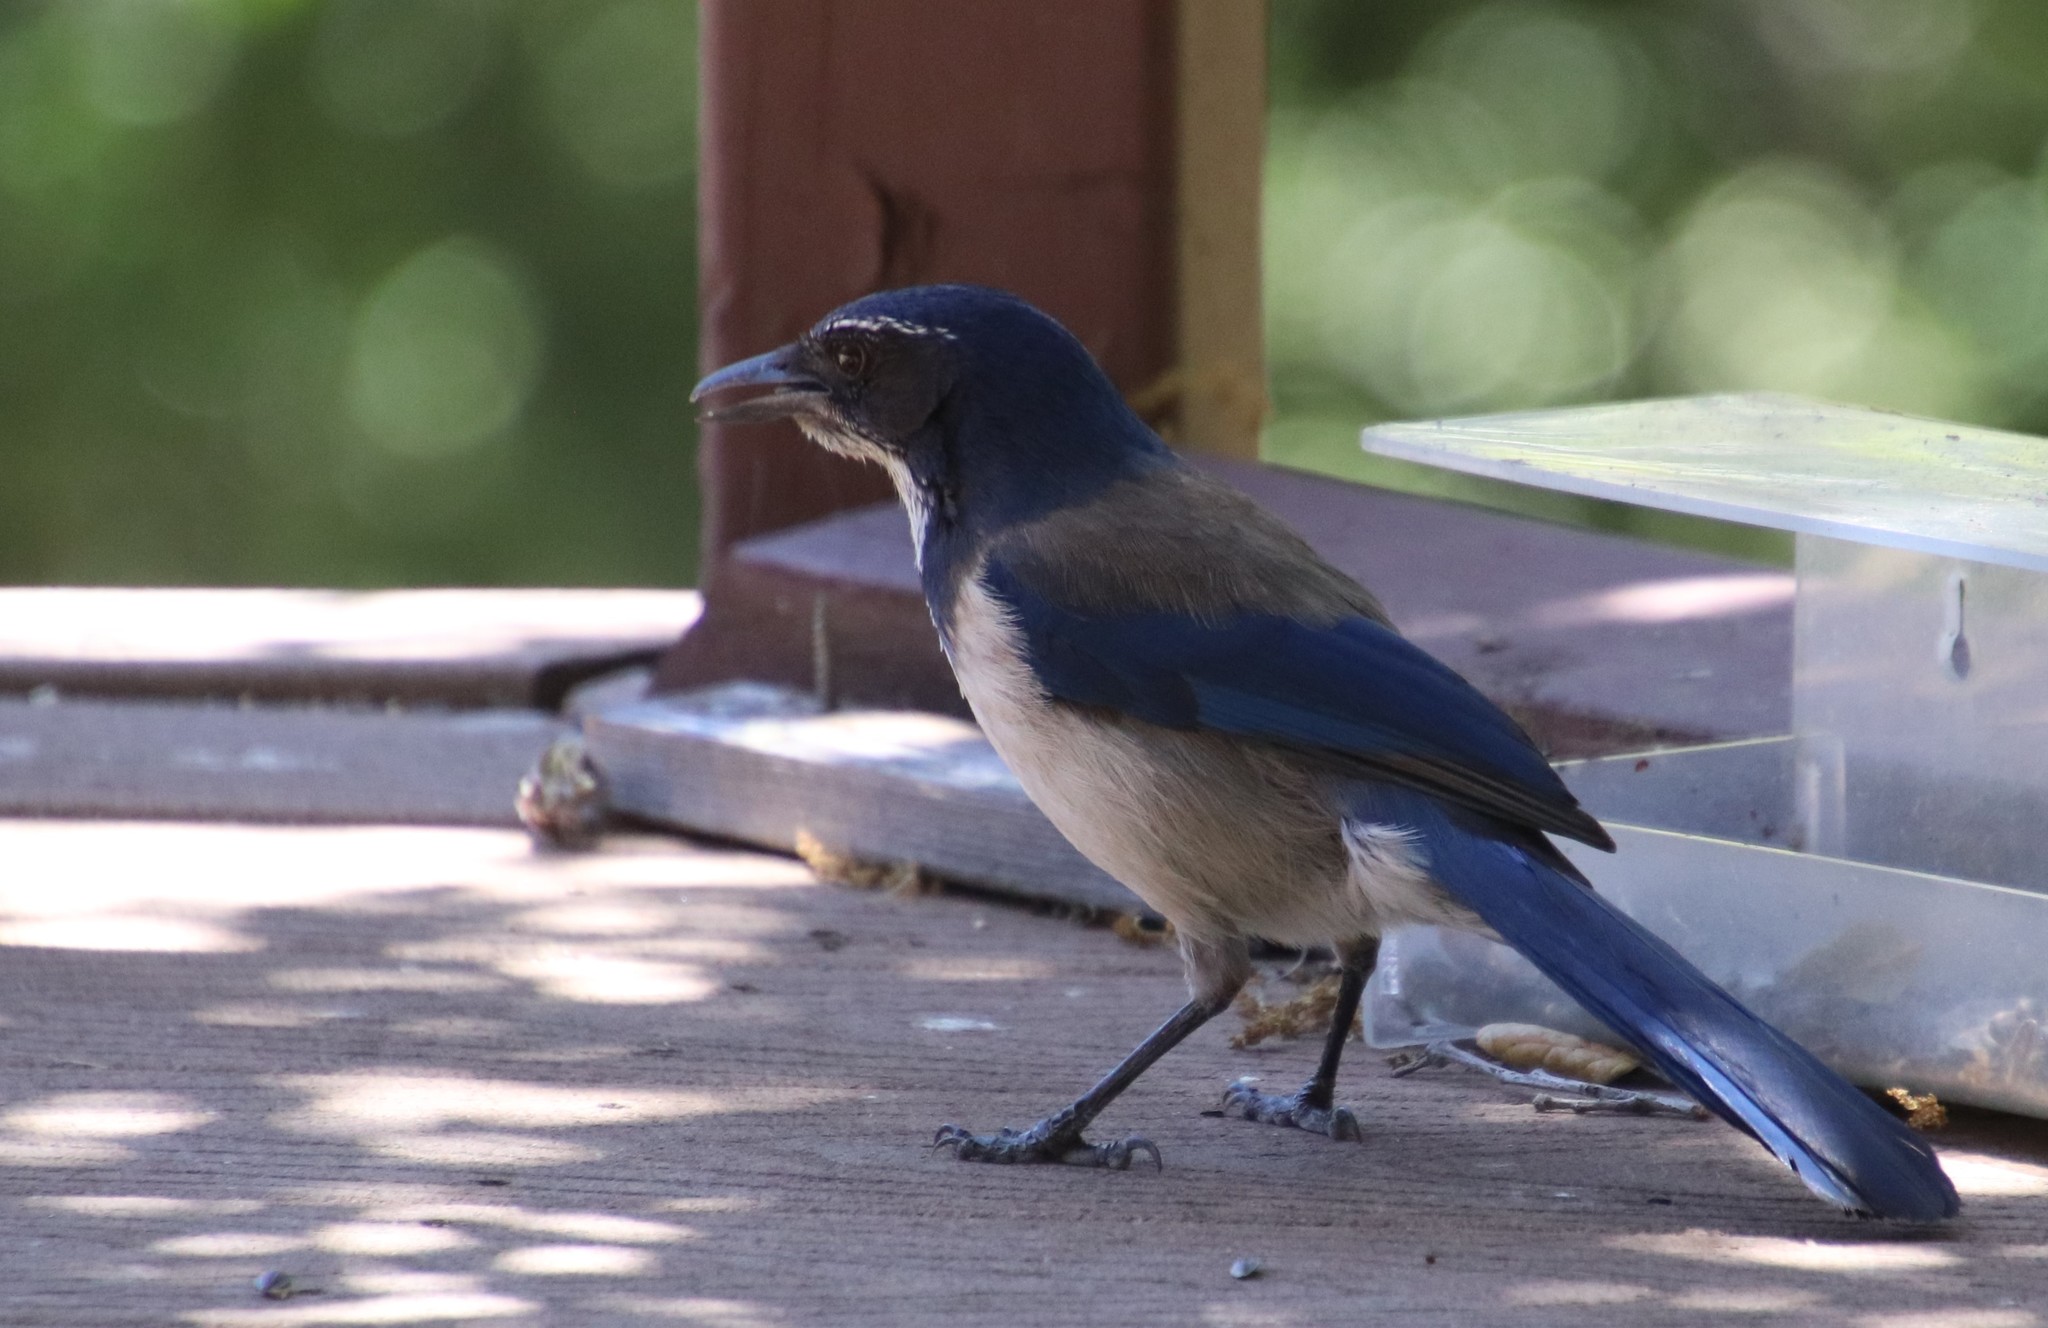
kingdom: Animalia
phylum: Chordata
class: Aves
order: Passeriformes
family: Corvidae
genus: Aphelocoma
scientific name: Aphelocoma californica
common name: California scrub-jay
